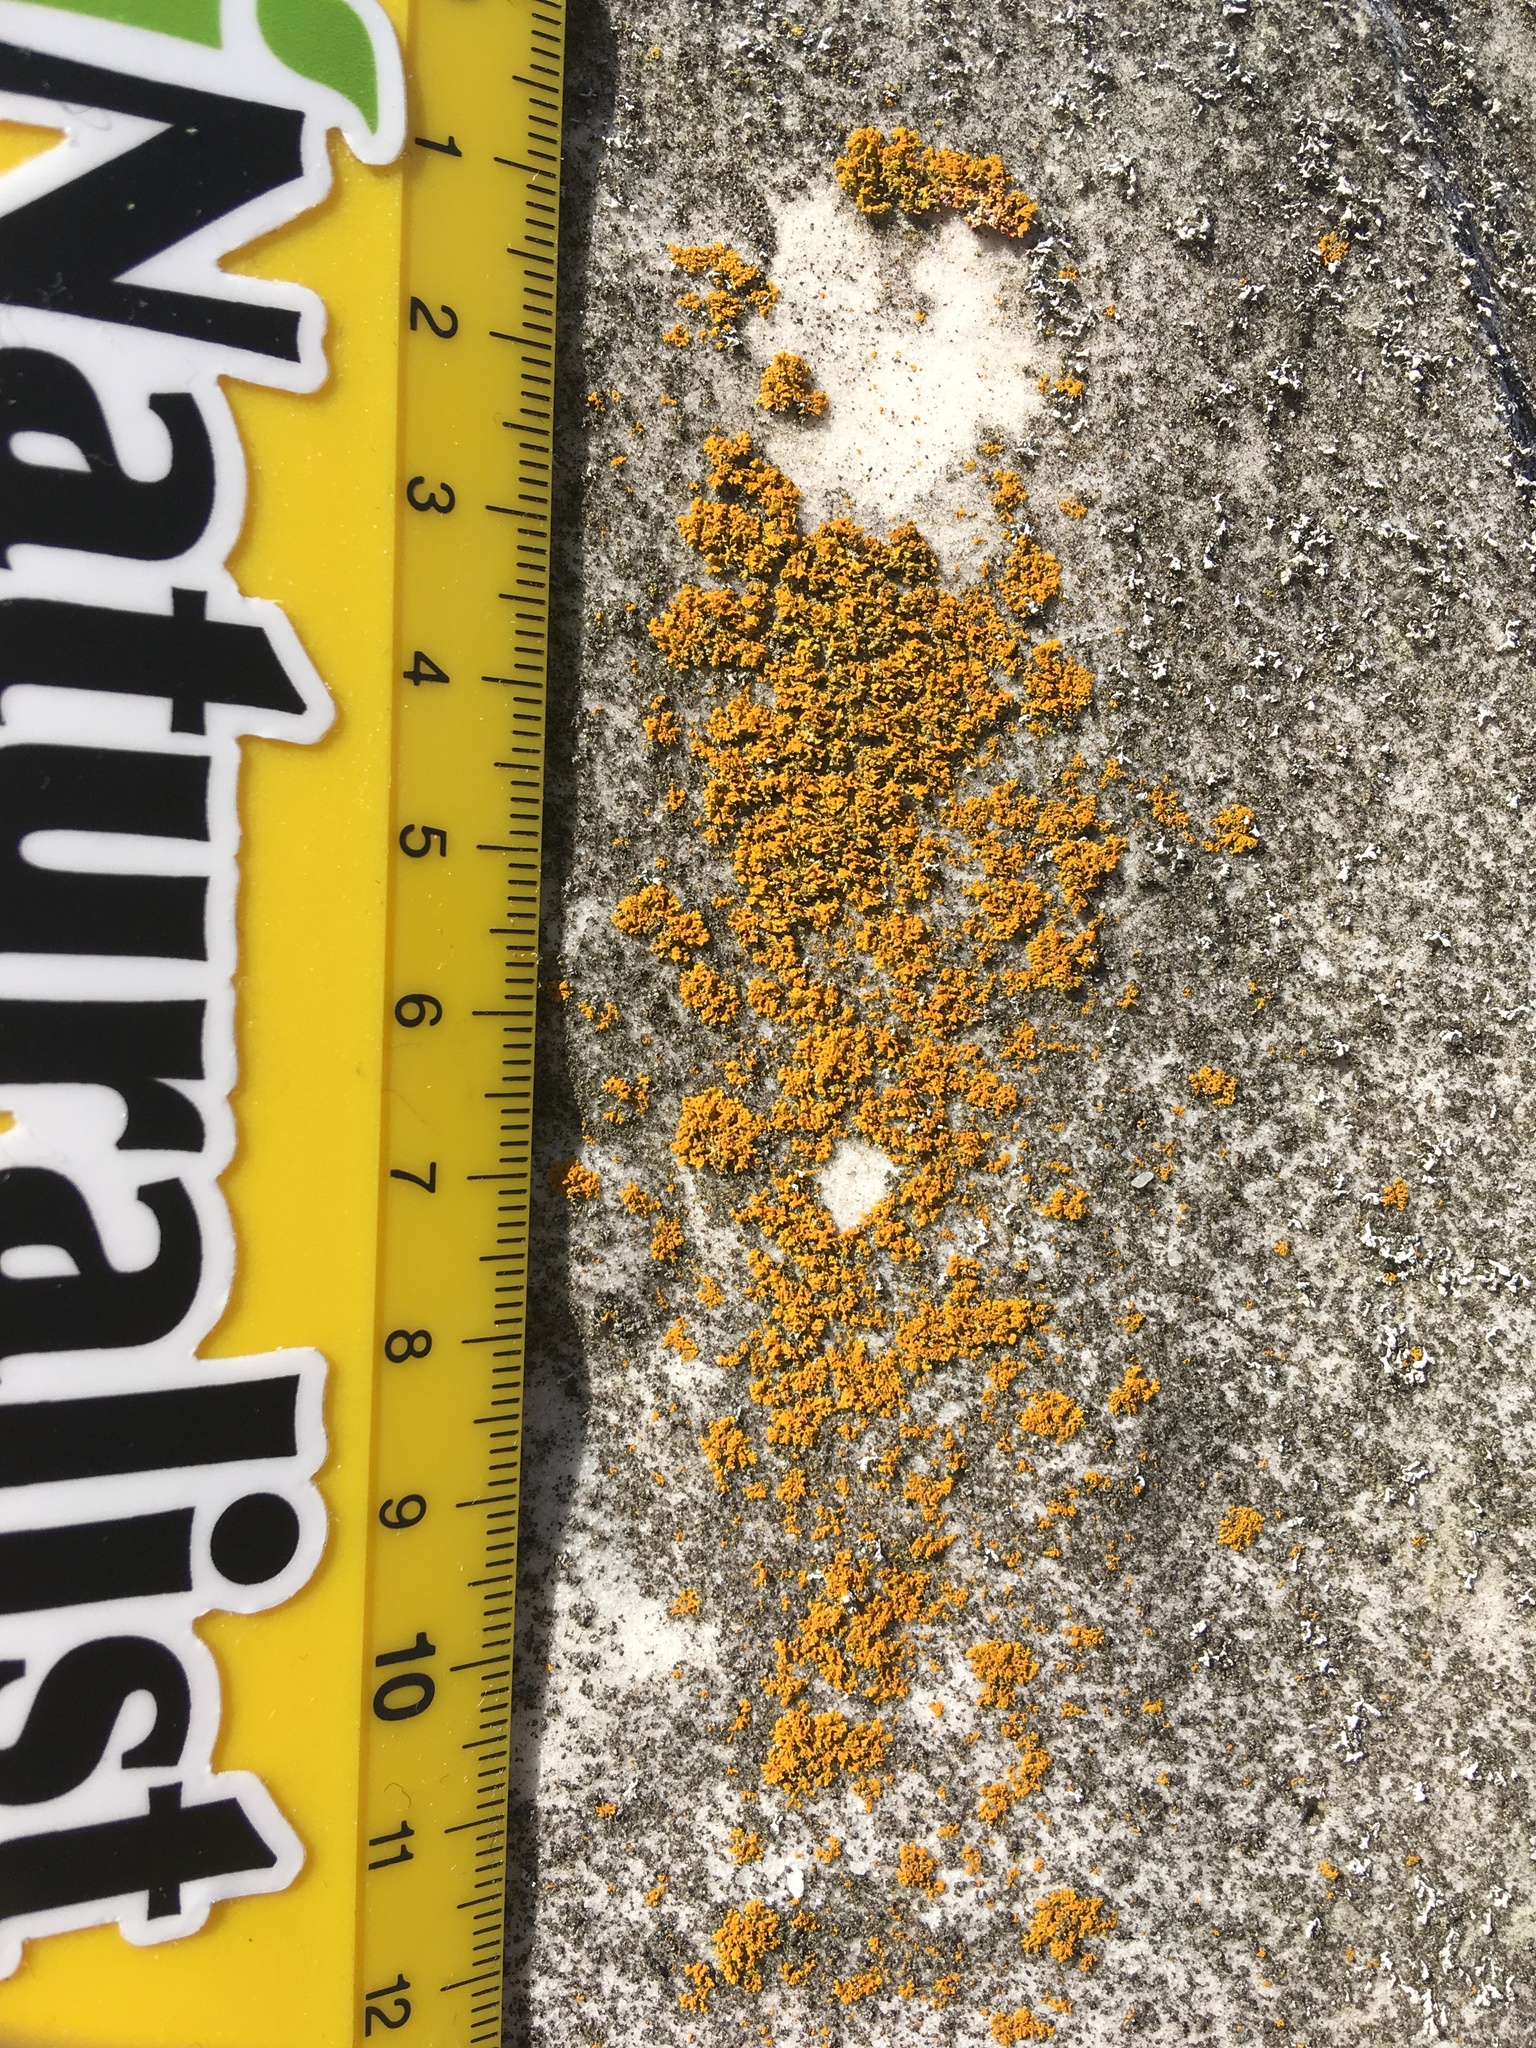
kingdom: Fungi
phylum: Ascomycota
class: Lecanoromycetes
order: Teloschistales
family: Teloschistaceae
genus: Gallowayella
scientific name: Gallowayella weberi
